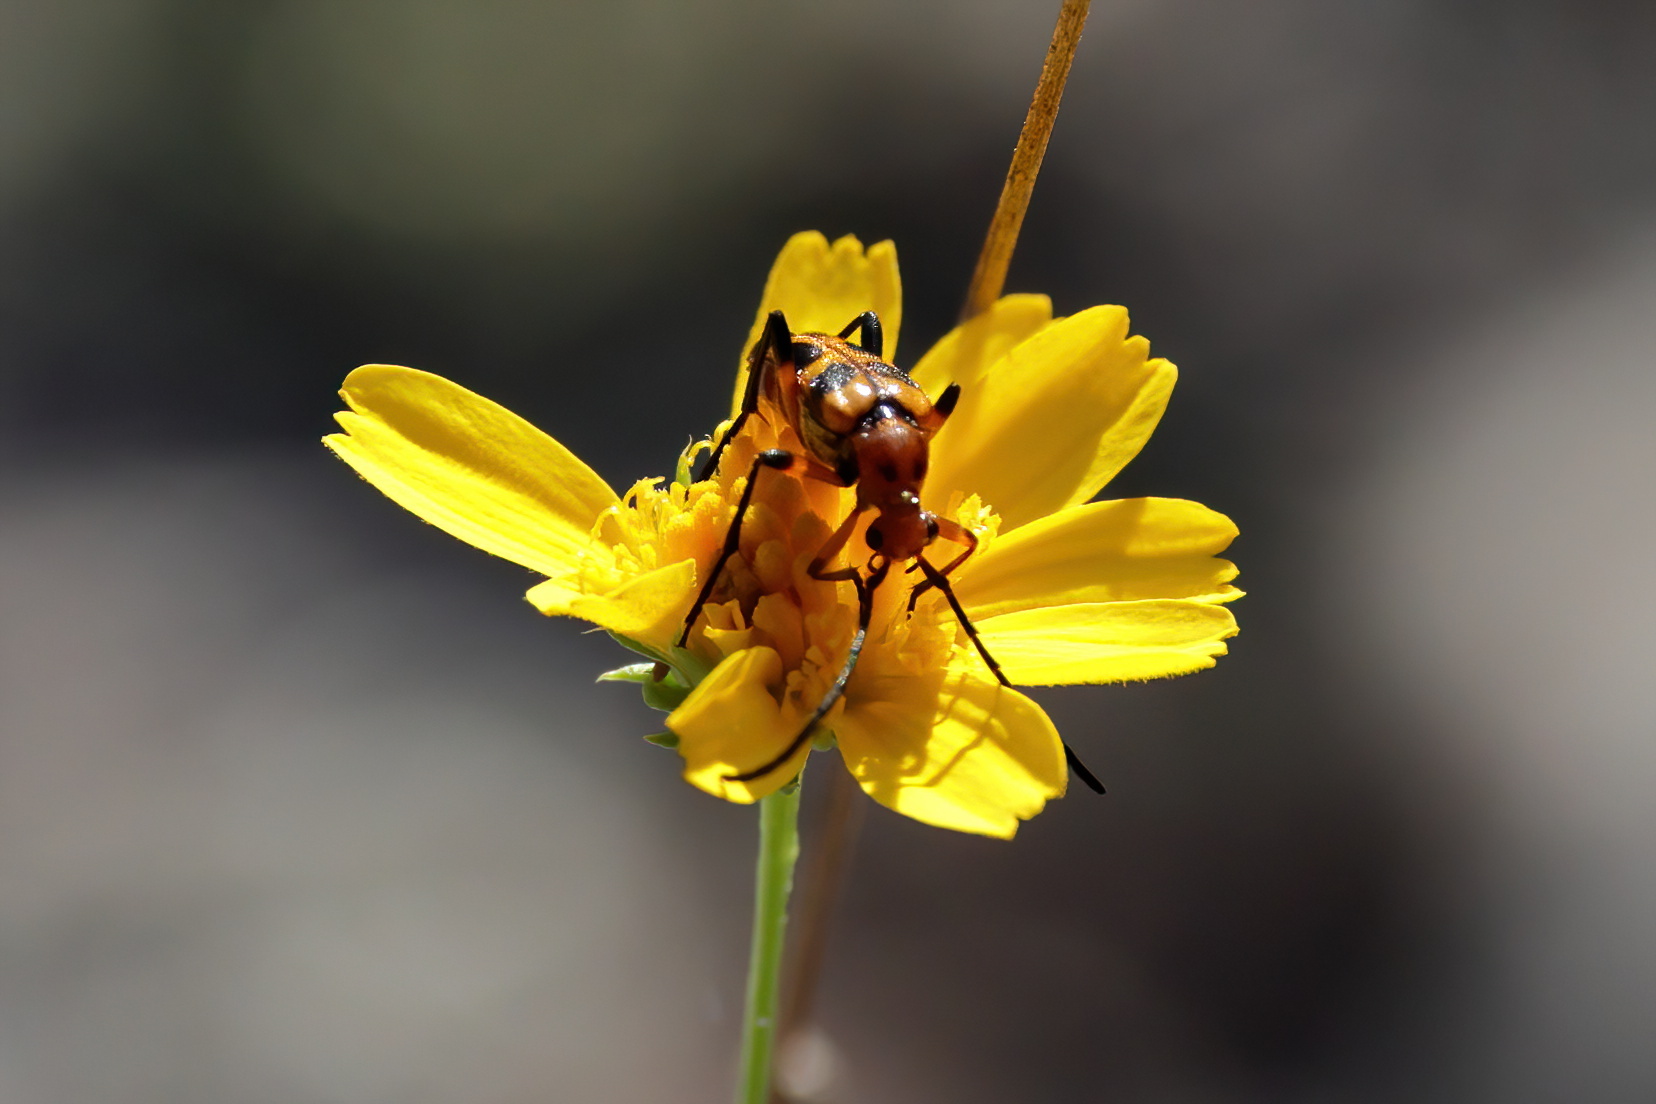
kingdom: Animalia
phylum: Arthropoda
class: Insecta
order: Coleoptera
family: Cerambycidae
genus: Strangalia
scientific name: Strangalia sexnotata
